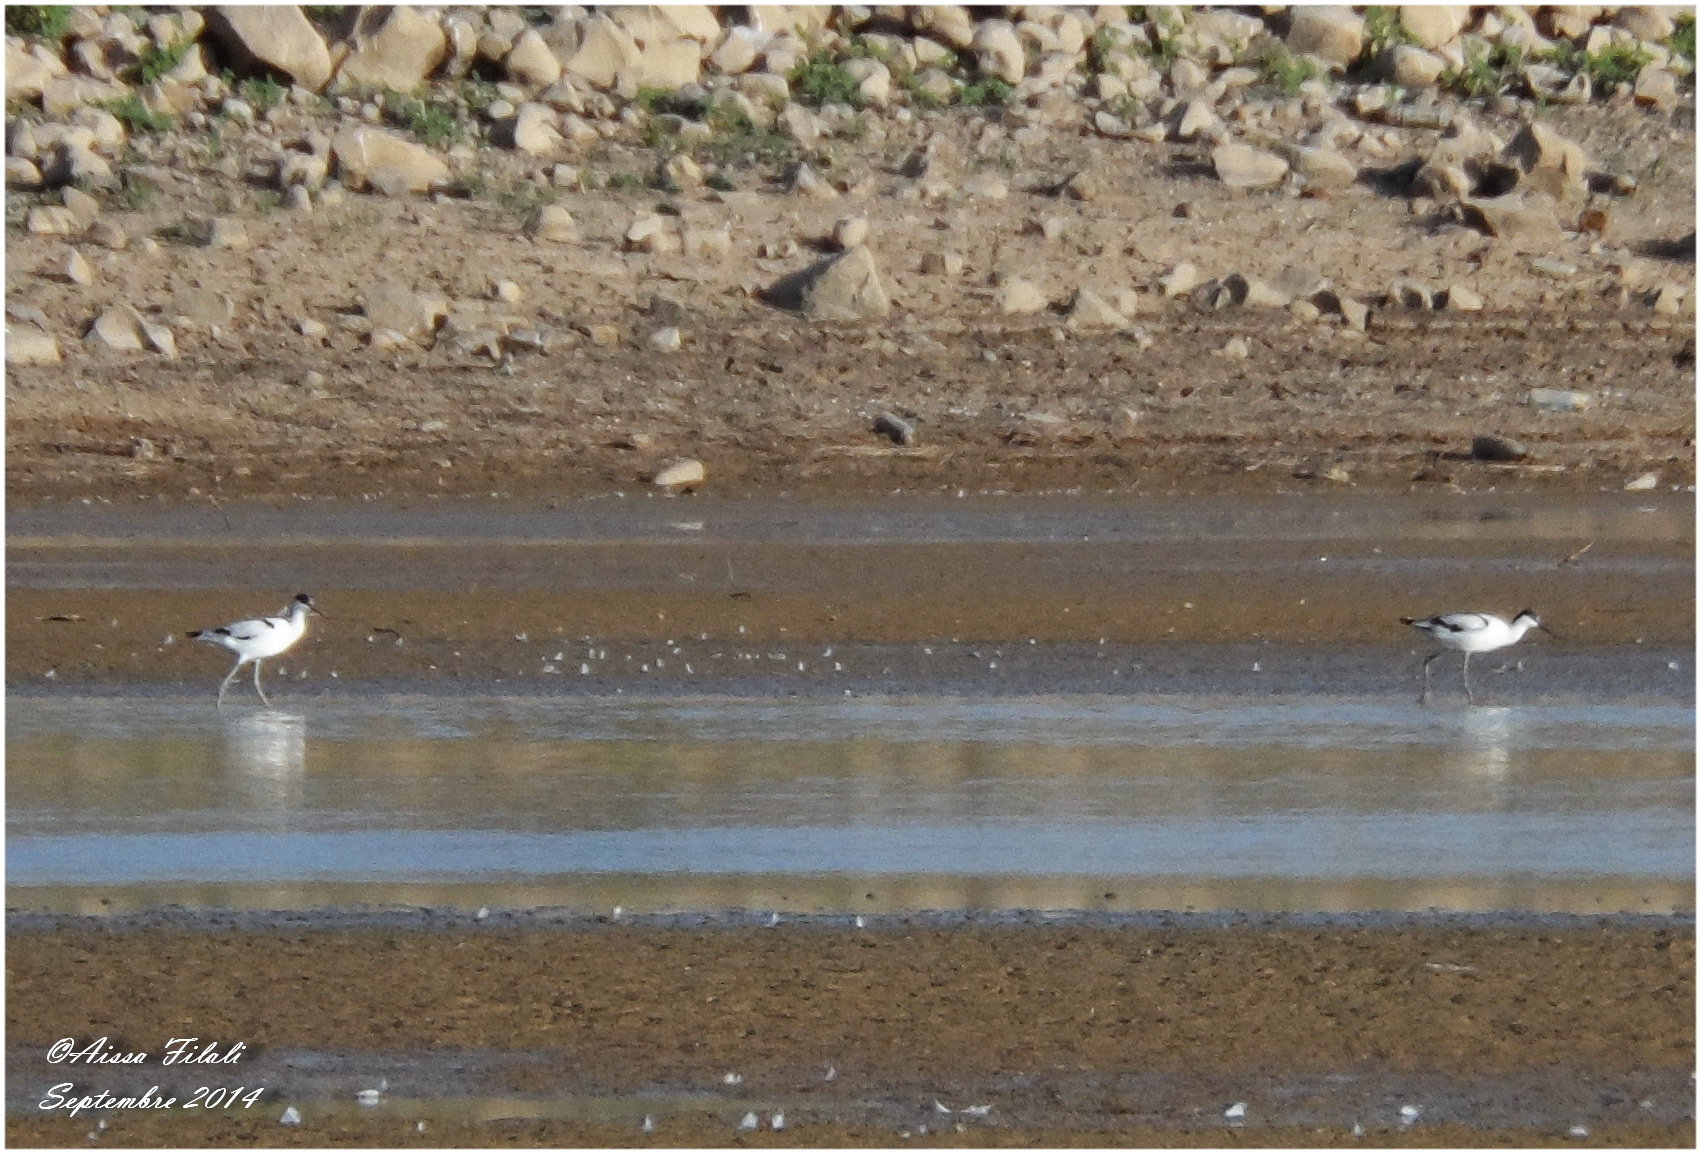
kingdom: Animalia
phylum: Chordata
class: Aves
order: Charadriiformes
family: Recurvirostridae
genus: Recurvirostra
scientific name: Recurvirostra avosetta
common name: Pied avocet
